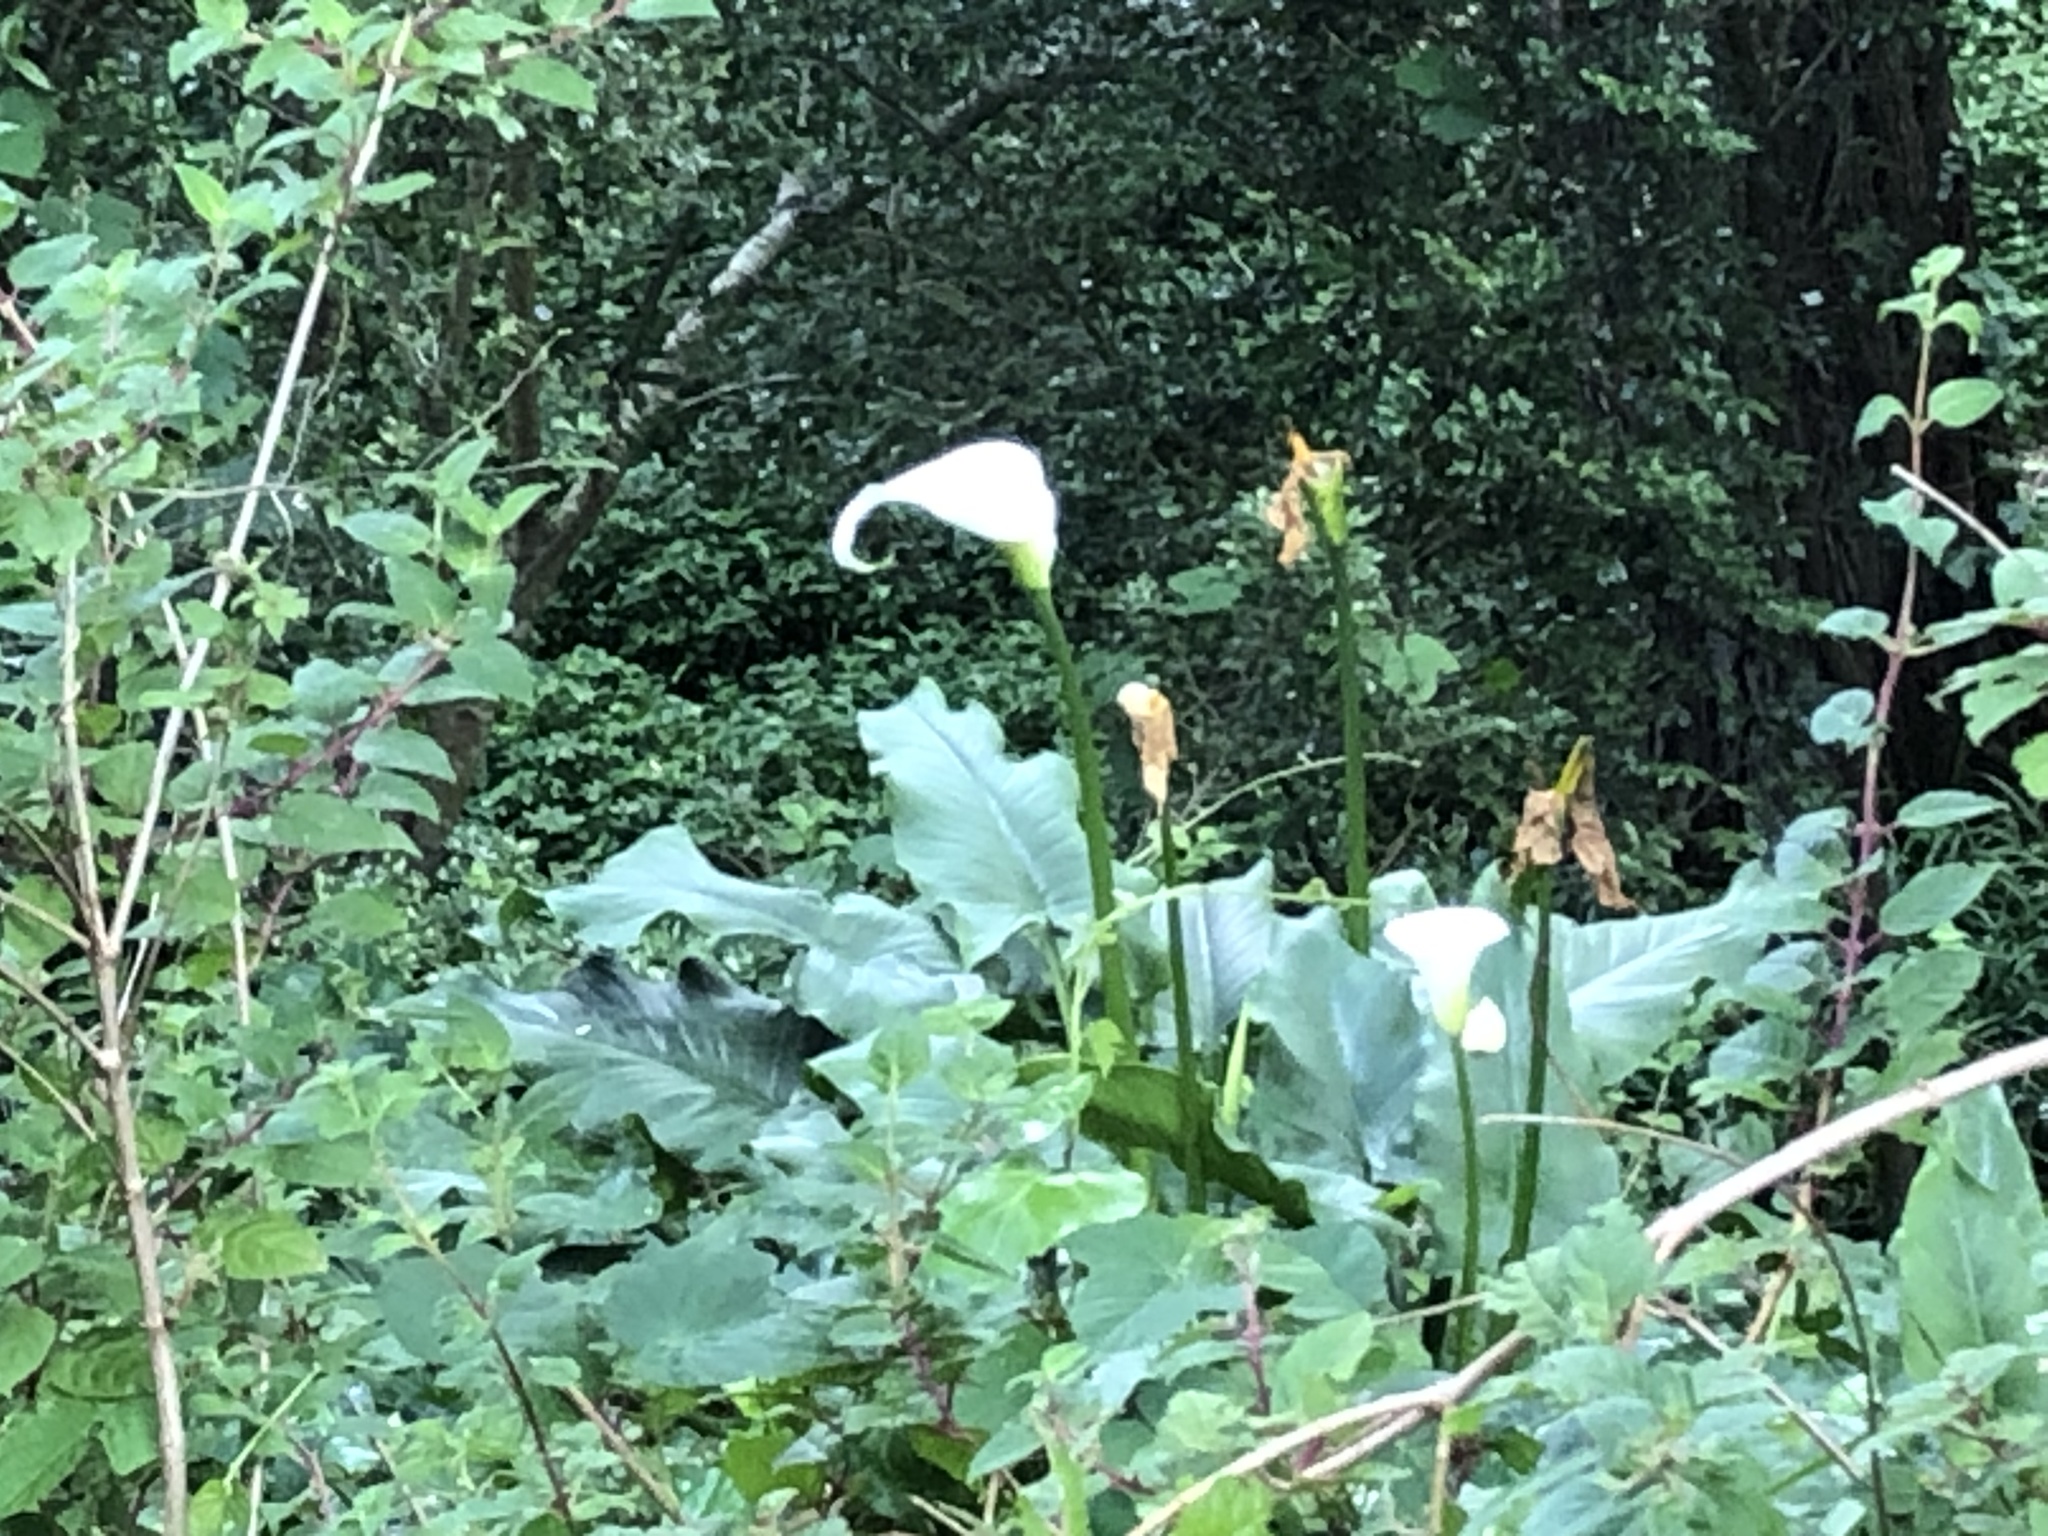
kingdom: Plantae
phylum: Tracheophyta
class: Liliopsida
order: Alismatales
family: Araceae
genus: Zantedeschia
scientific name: Zantedeschia aethiopica
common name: Altar-lily
